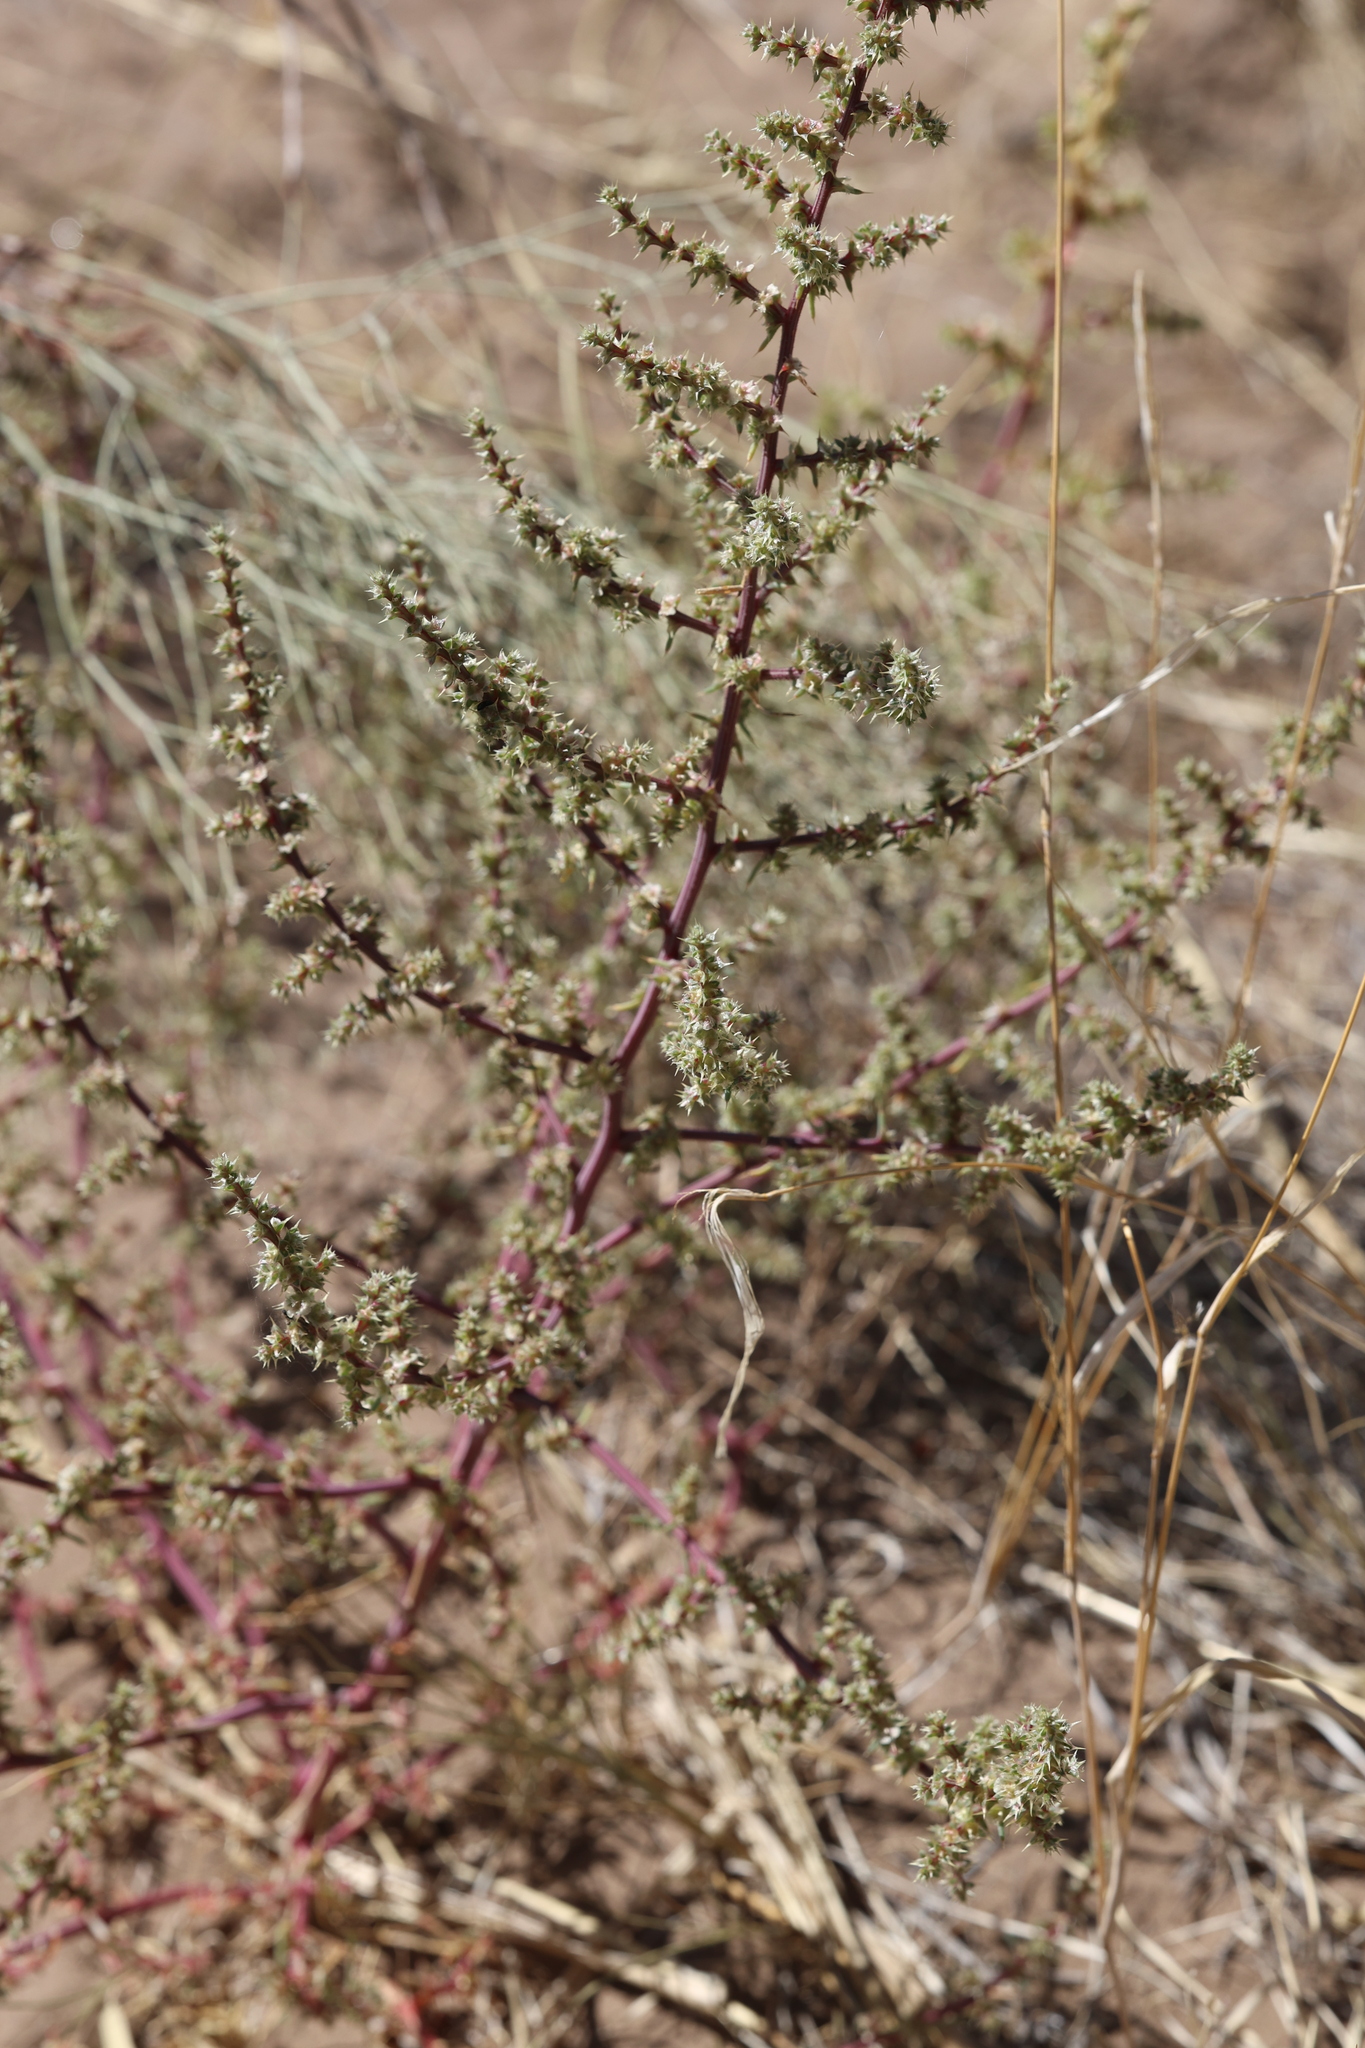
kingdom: Plantae
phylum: Tracheophyta
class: Magnoliopsida
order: Caryophyllales
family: Amaranthaceae
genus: Salsola
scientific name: Salsola tragus
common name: Prickly russian thistle
